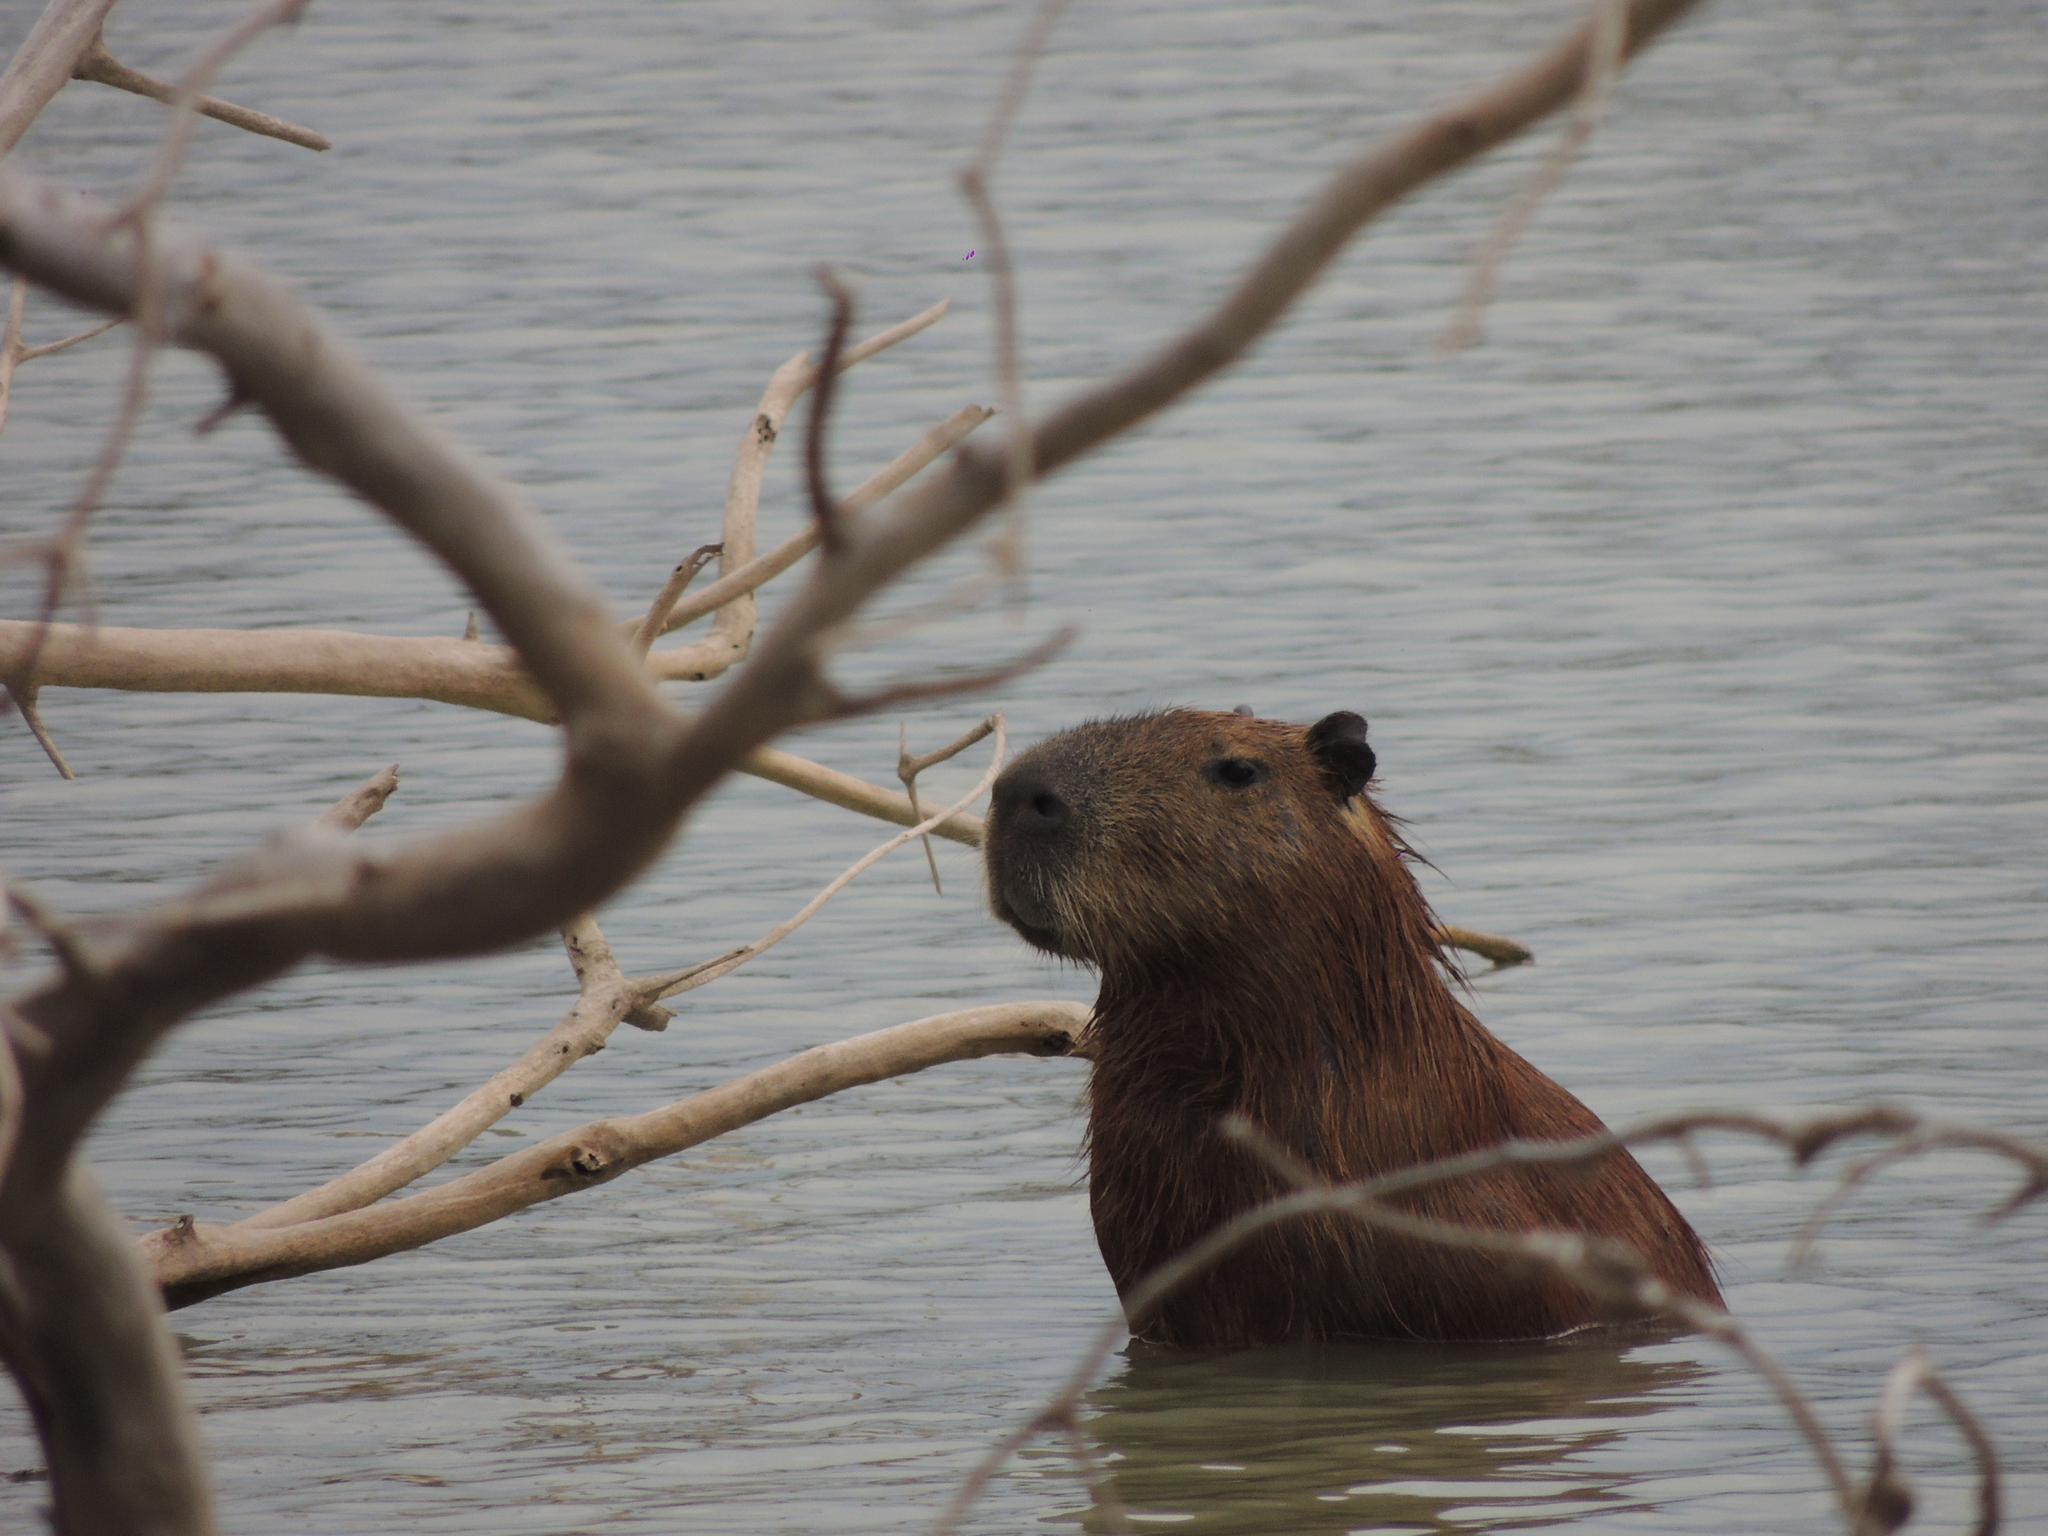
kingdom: Animalia
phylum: Chordata
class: Mammalia
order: Rodentia
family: Caviidae
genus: Hydrochoerus
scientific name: Hydrochoerus hydrochaeris
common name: Capybara
